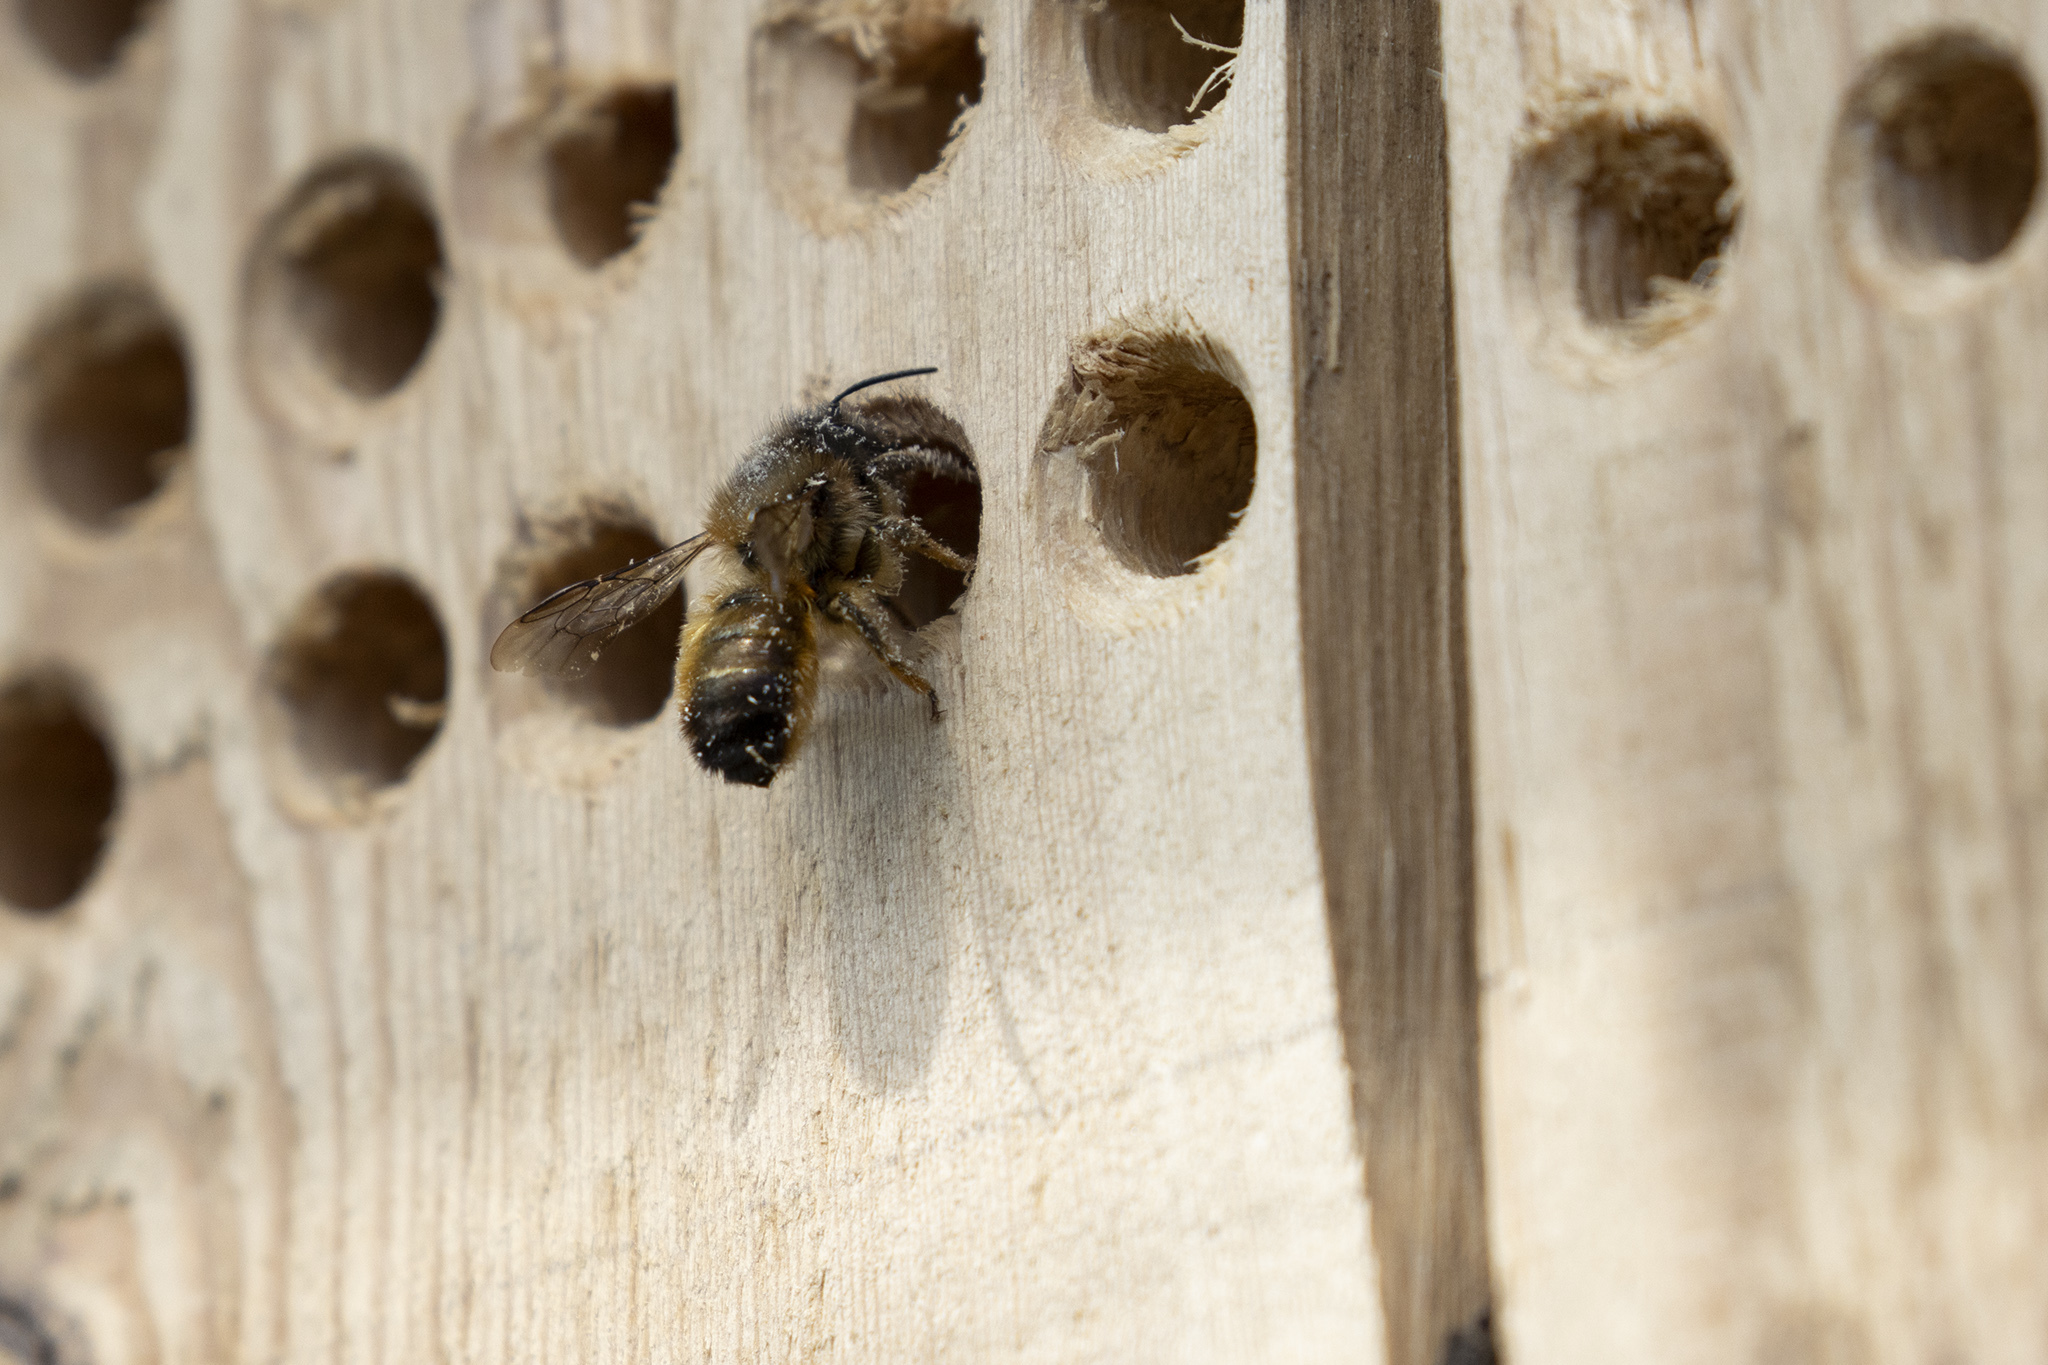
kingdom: Animalia
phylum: Arthropoda
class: Insecta
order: Hymenoptera
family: Megachilidae
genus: Osmia
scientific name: Osmia bicornis
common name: Red mason bee
